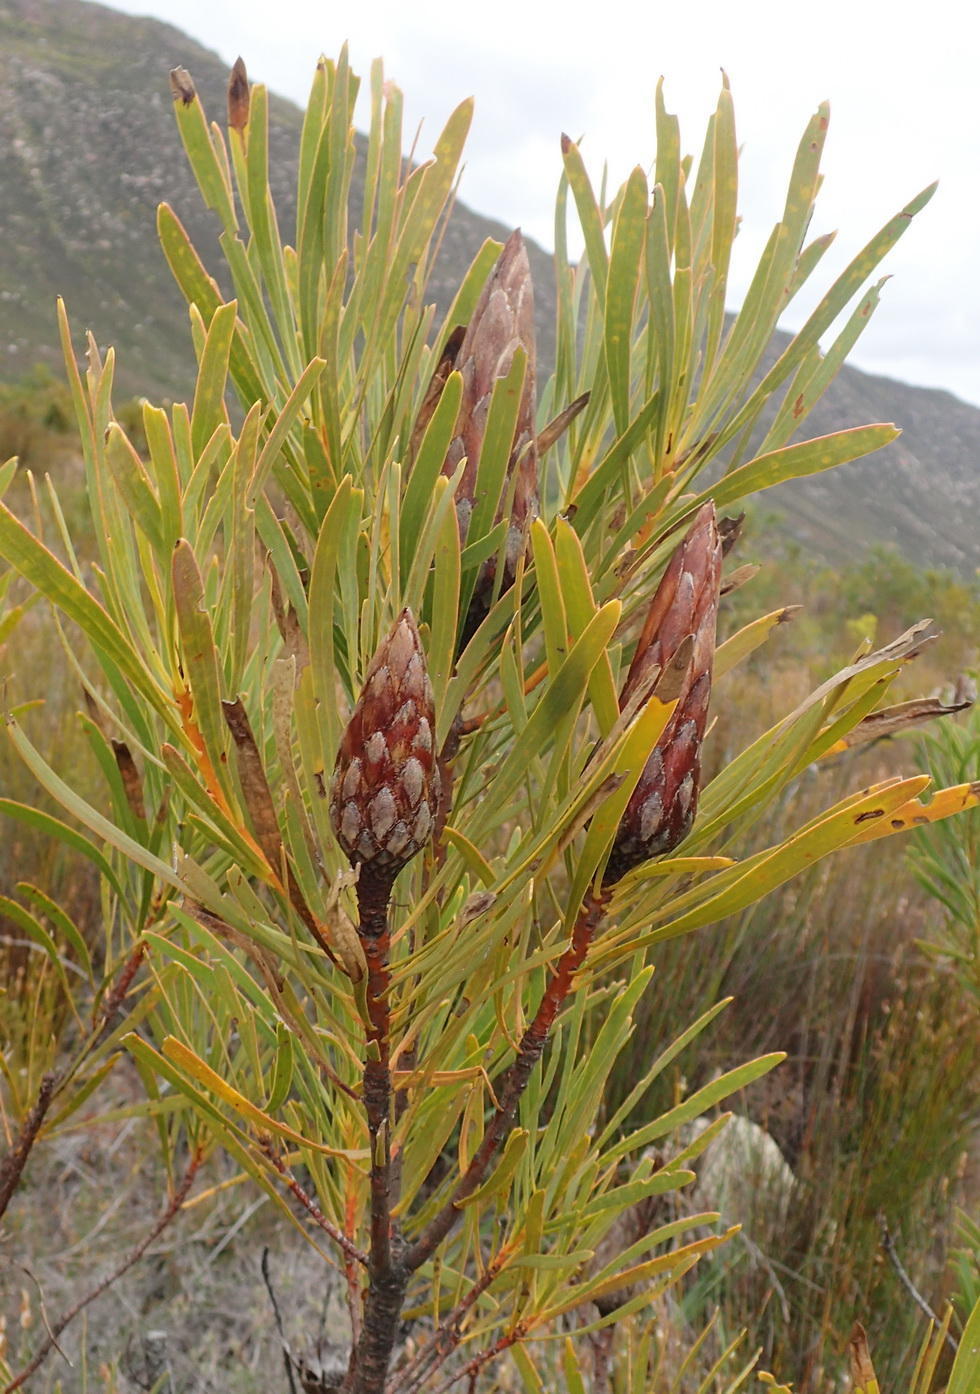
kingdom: Plantae
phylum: Tracheophyta
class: Magnoliopsida
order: Proteales
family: Proteaceae
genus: Protea
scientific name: Protea repens
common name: Sugarbush
